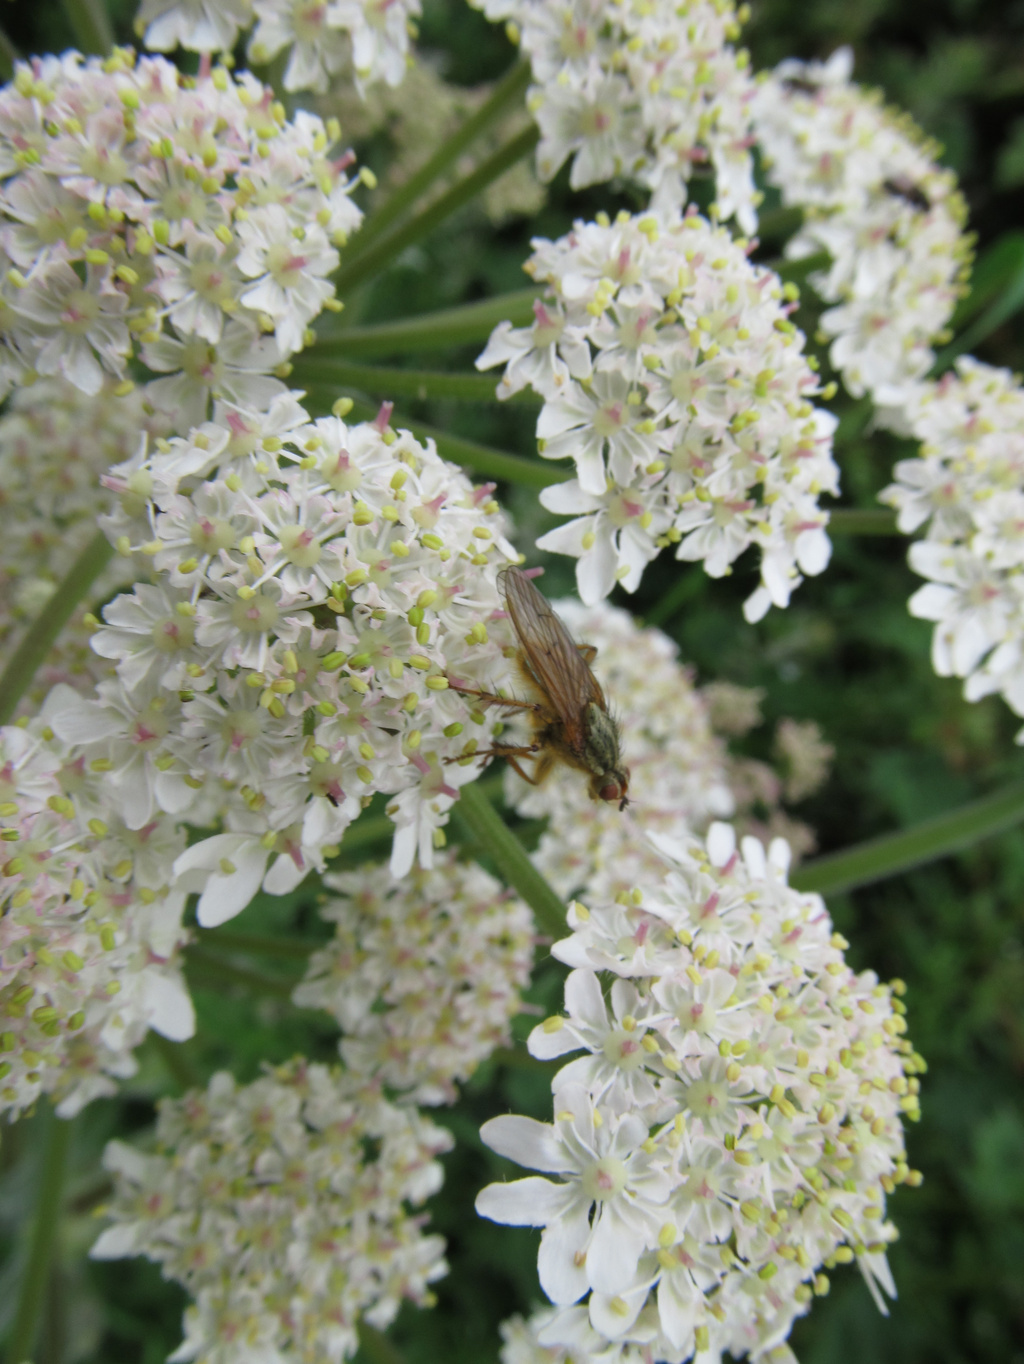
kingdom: Animalia
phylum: Arthropoda
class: Insecta
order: Diptera
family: Scathophagidae
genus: Scathophaga
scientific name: Scathophaga stercoraria
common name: Yellow dung fly
